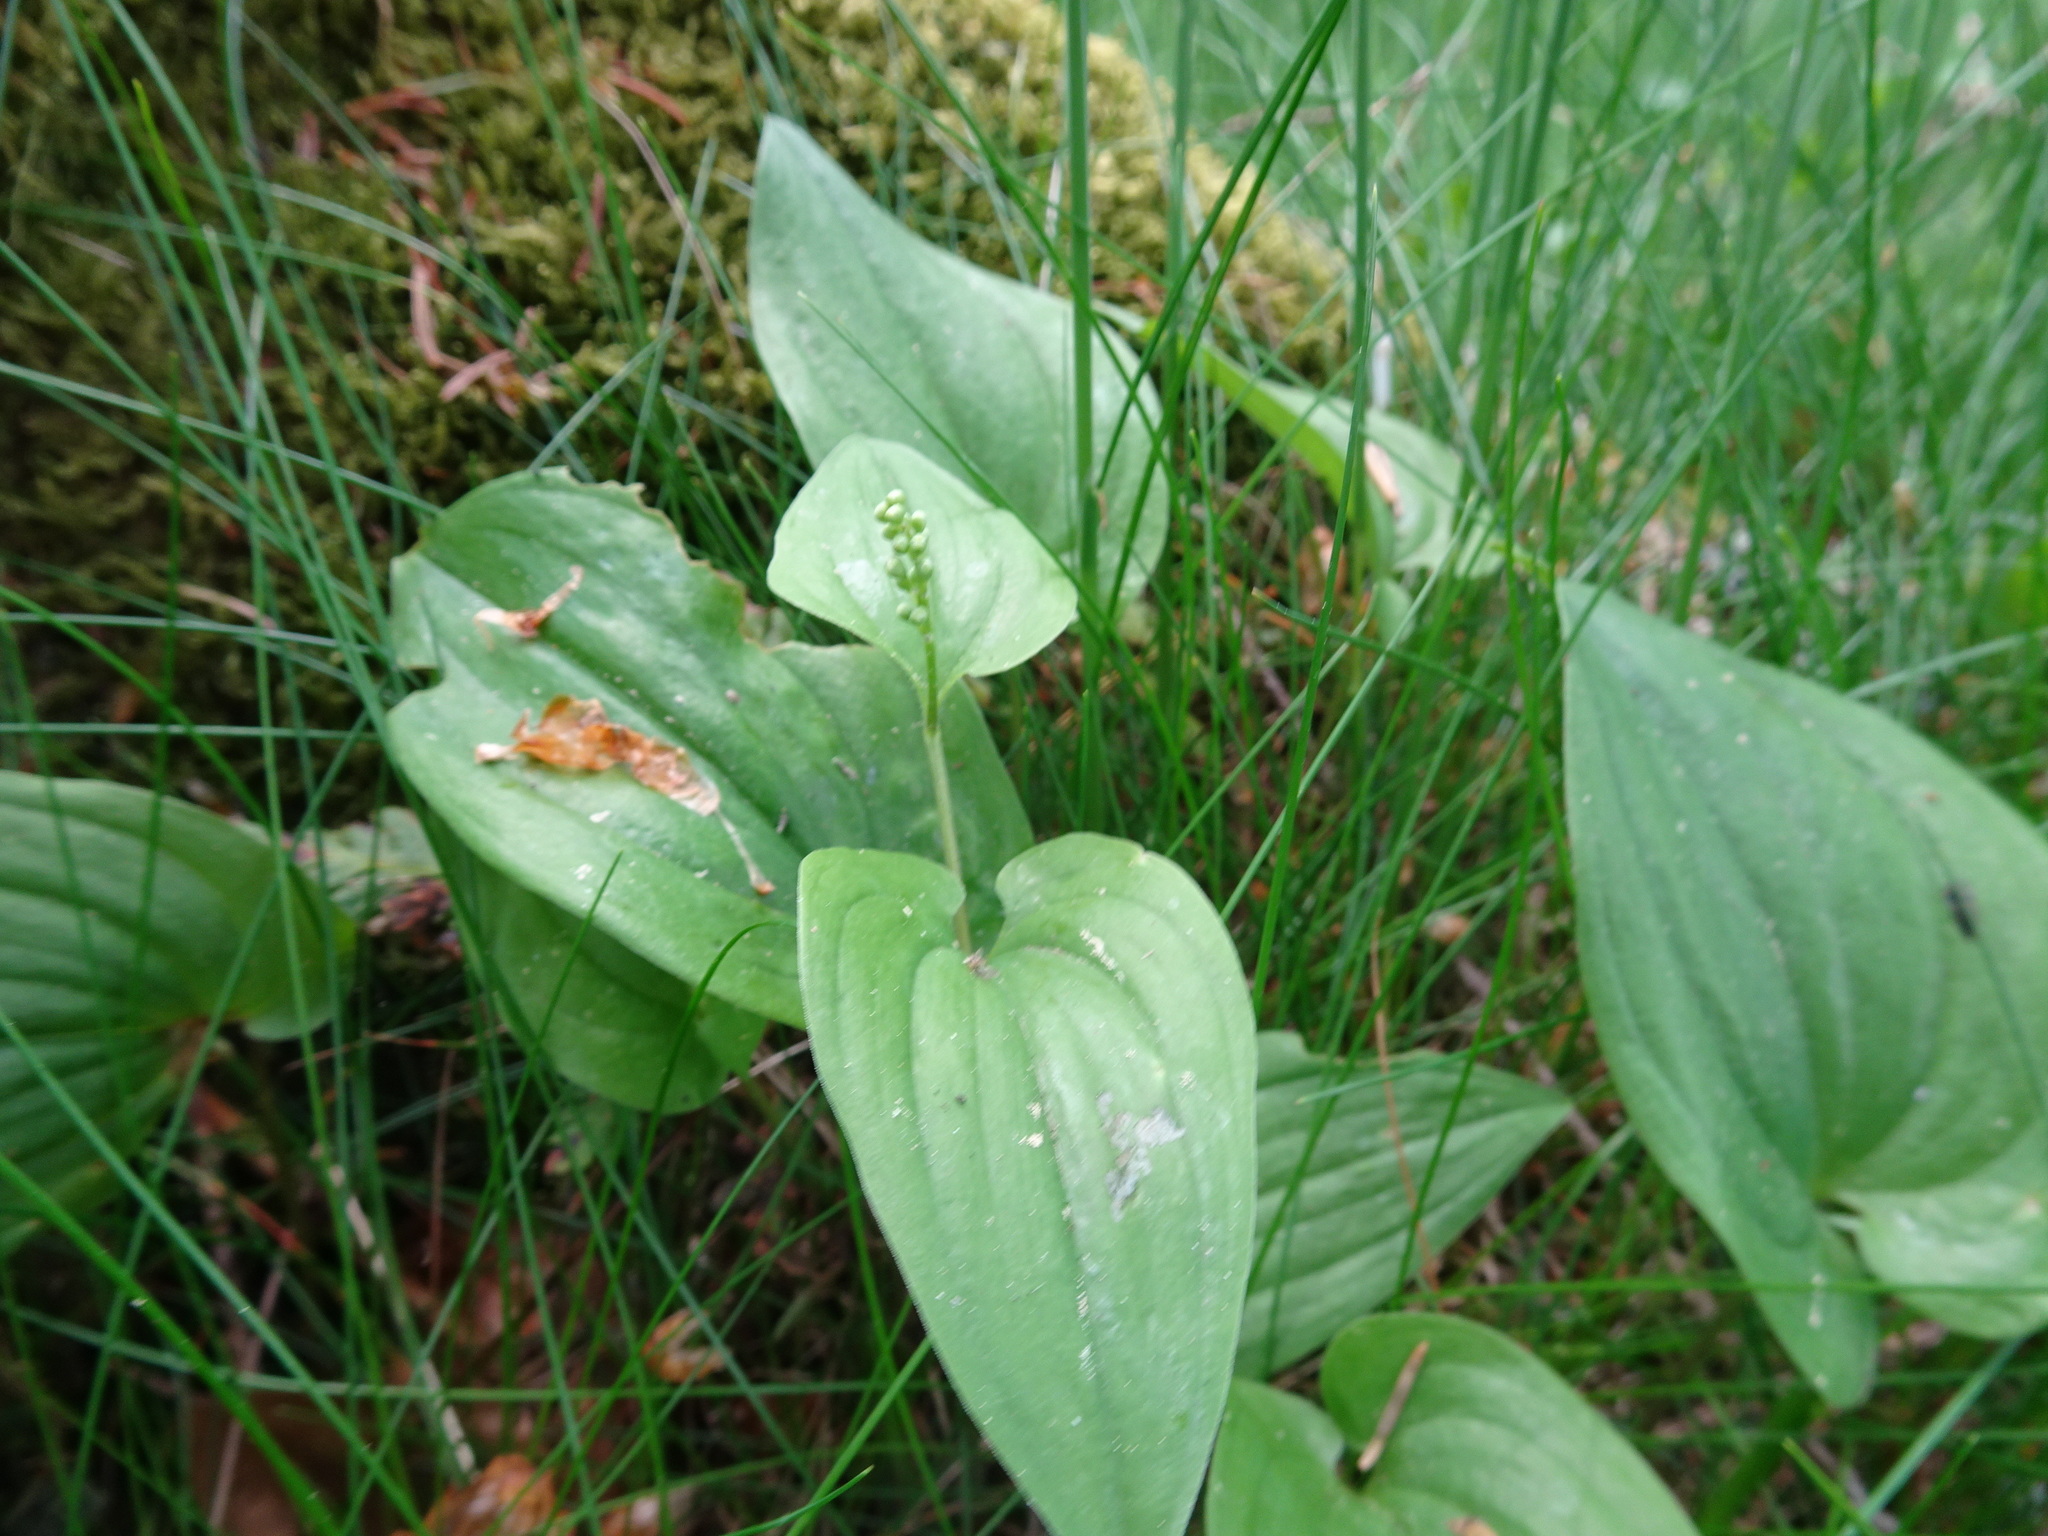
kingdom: Plantae
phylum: Tracheophyta
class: Liliopsida
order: Asparagales
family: Asparagaceae
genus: Maianthemum
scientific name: Maianthemum bifolium
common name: May lily
